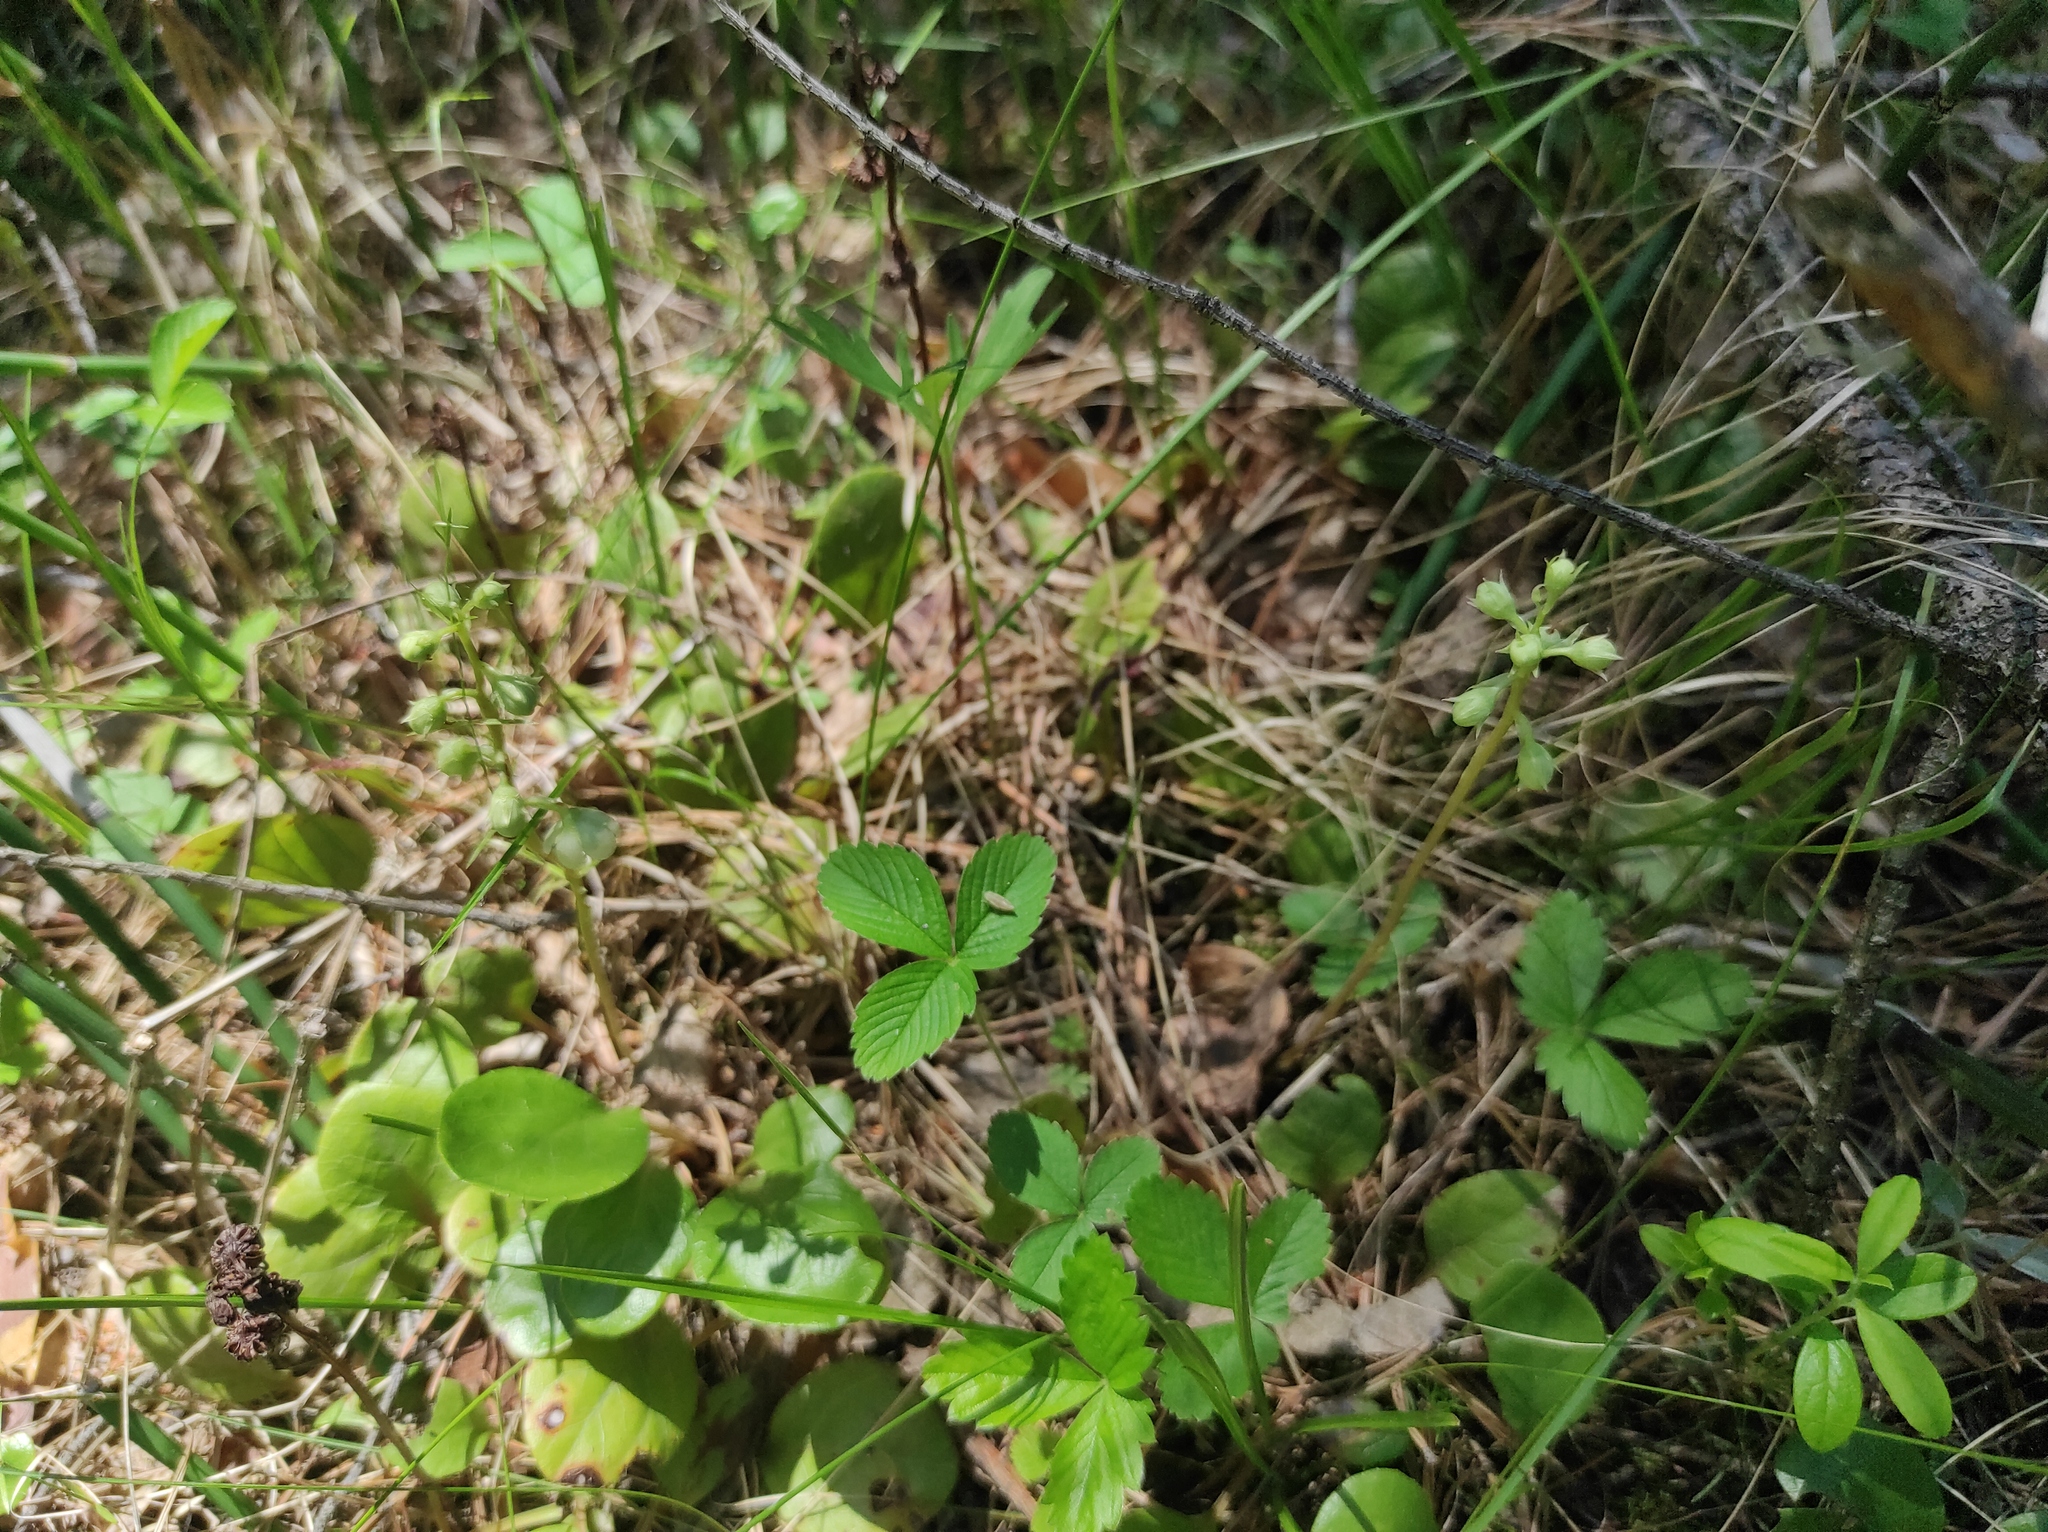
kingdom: Plantae
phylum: Tracheophyta
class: Magnoliopsida
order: Rosales
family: Rosaceae
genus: Fragaria
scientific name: Fragaria viridis
